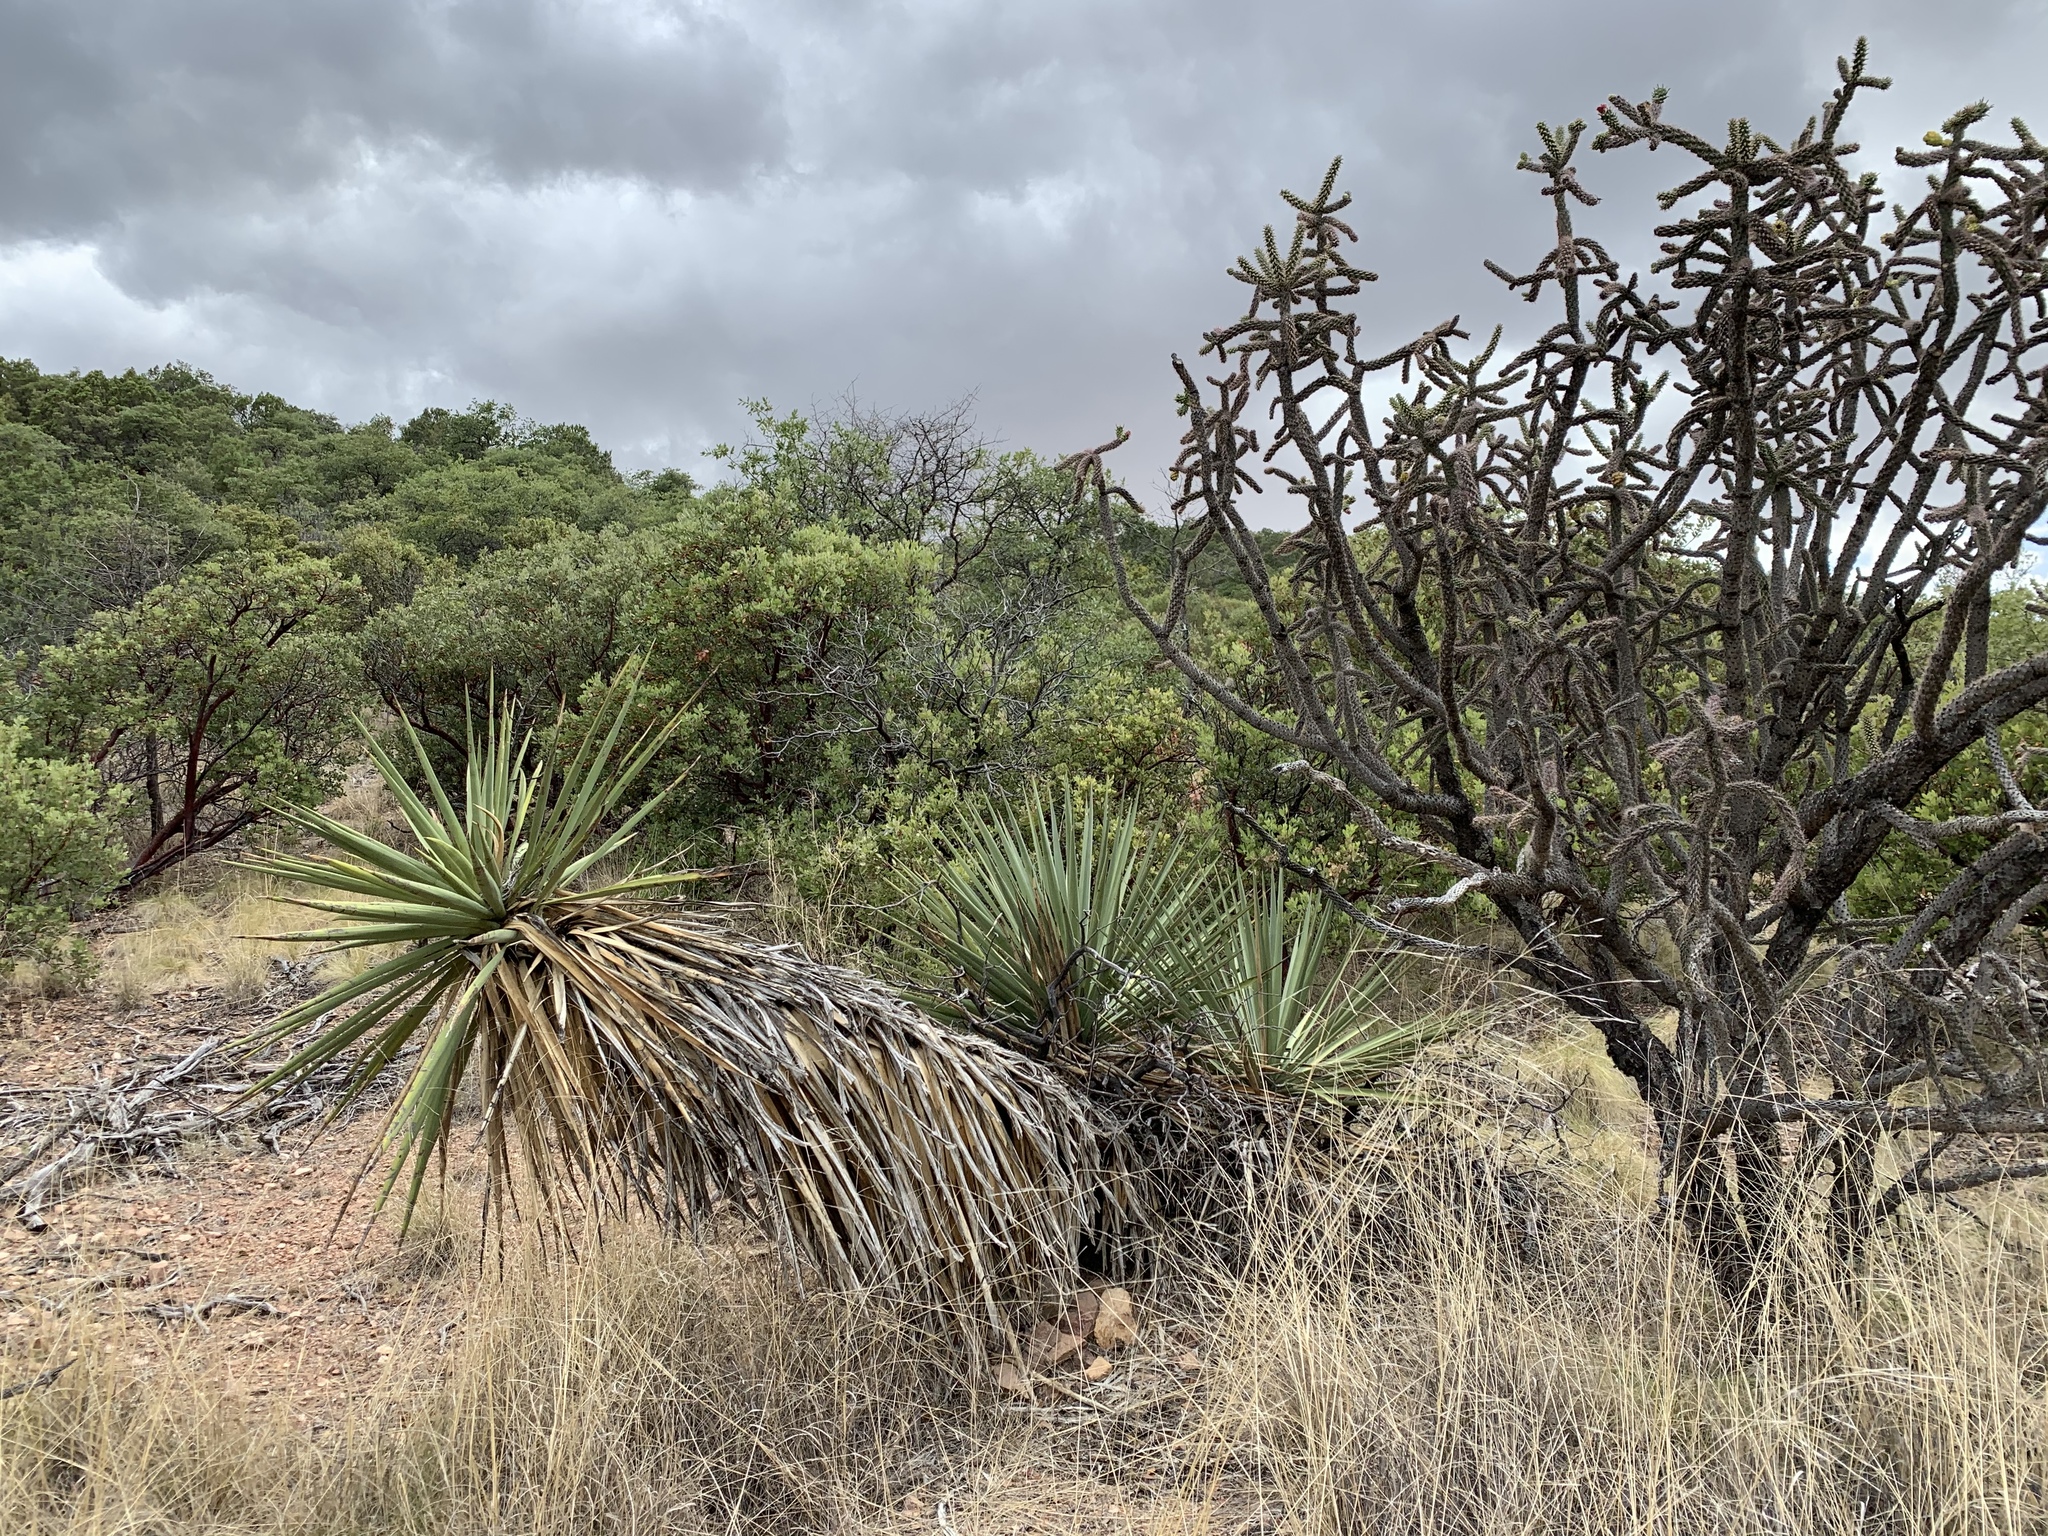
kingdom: Plantae
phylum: Tracheophyta
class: Liliopsida
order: Asparagales
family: Asparagaceae
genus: Yucca
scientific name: Yucca madrensis
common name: Hoary yucca
